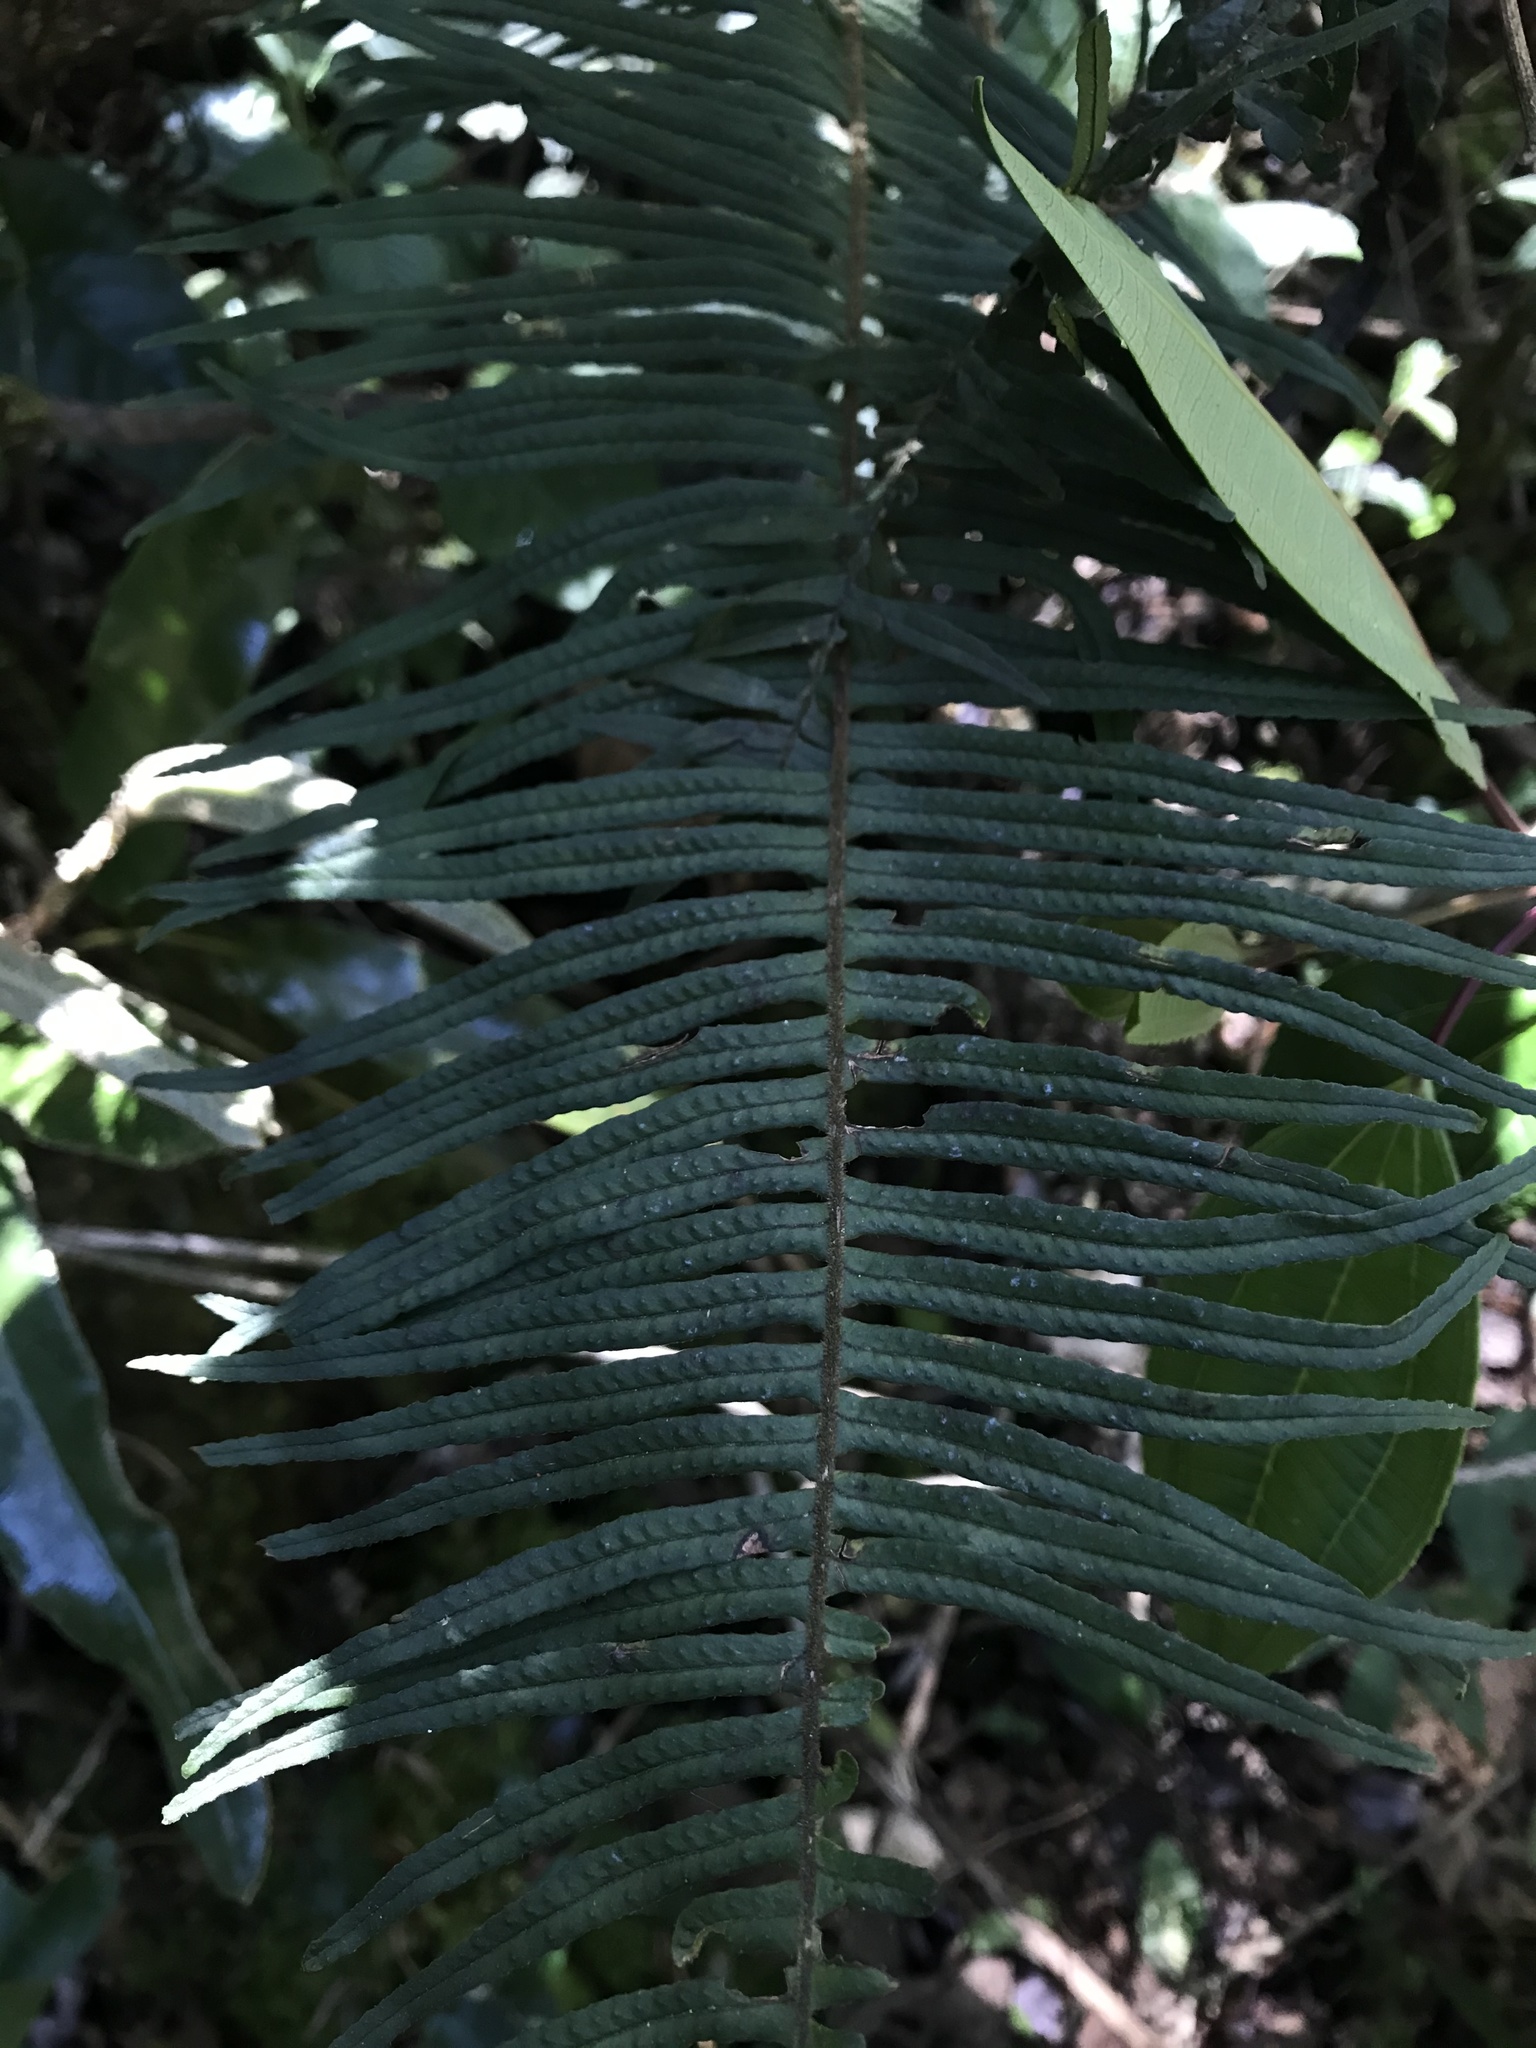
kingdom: Plantae
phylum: Tracheophyta
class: Polypodiopsida
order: Polypodiales
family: Polypodiaceae
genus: Pecluma
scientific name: Pecluma divaricata
